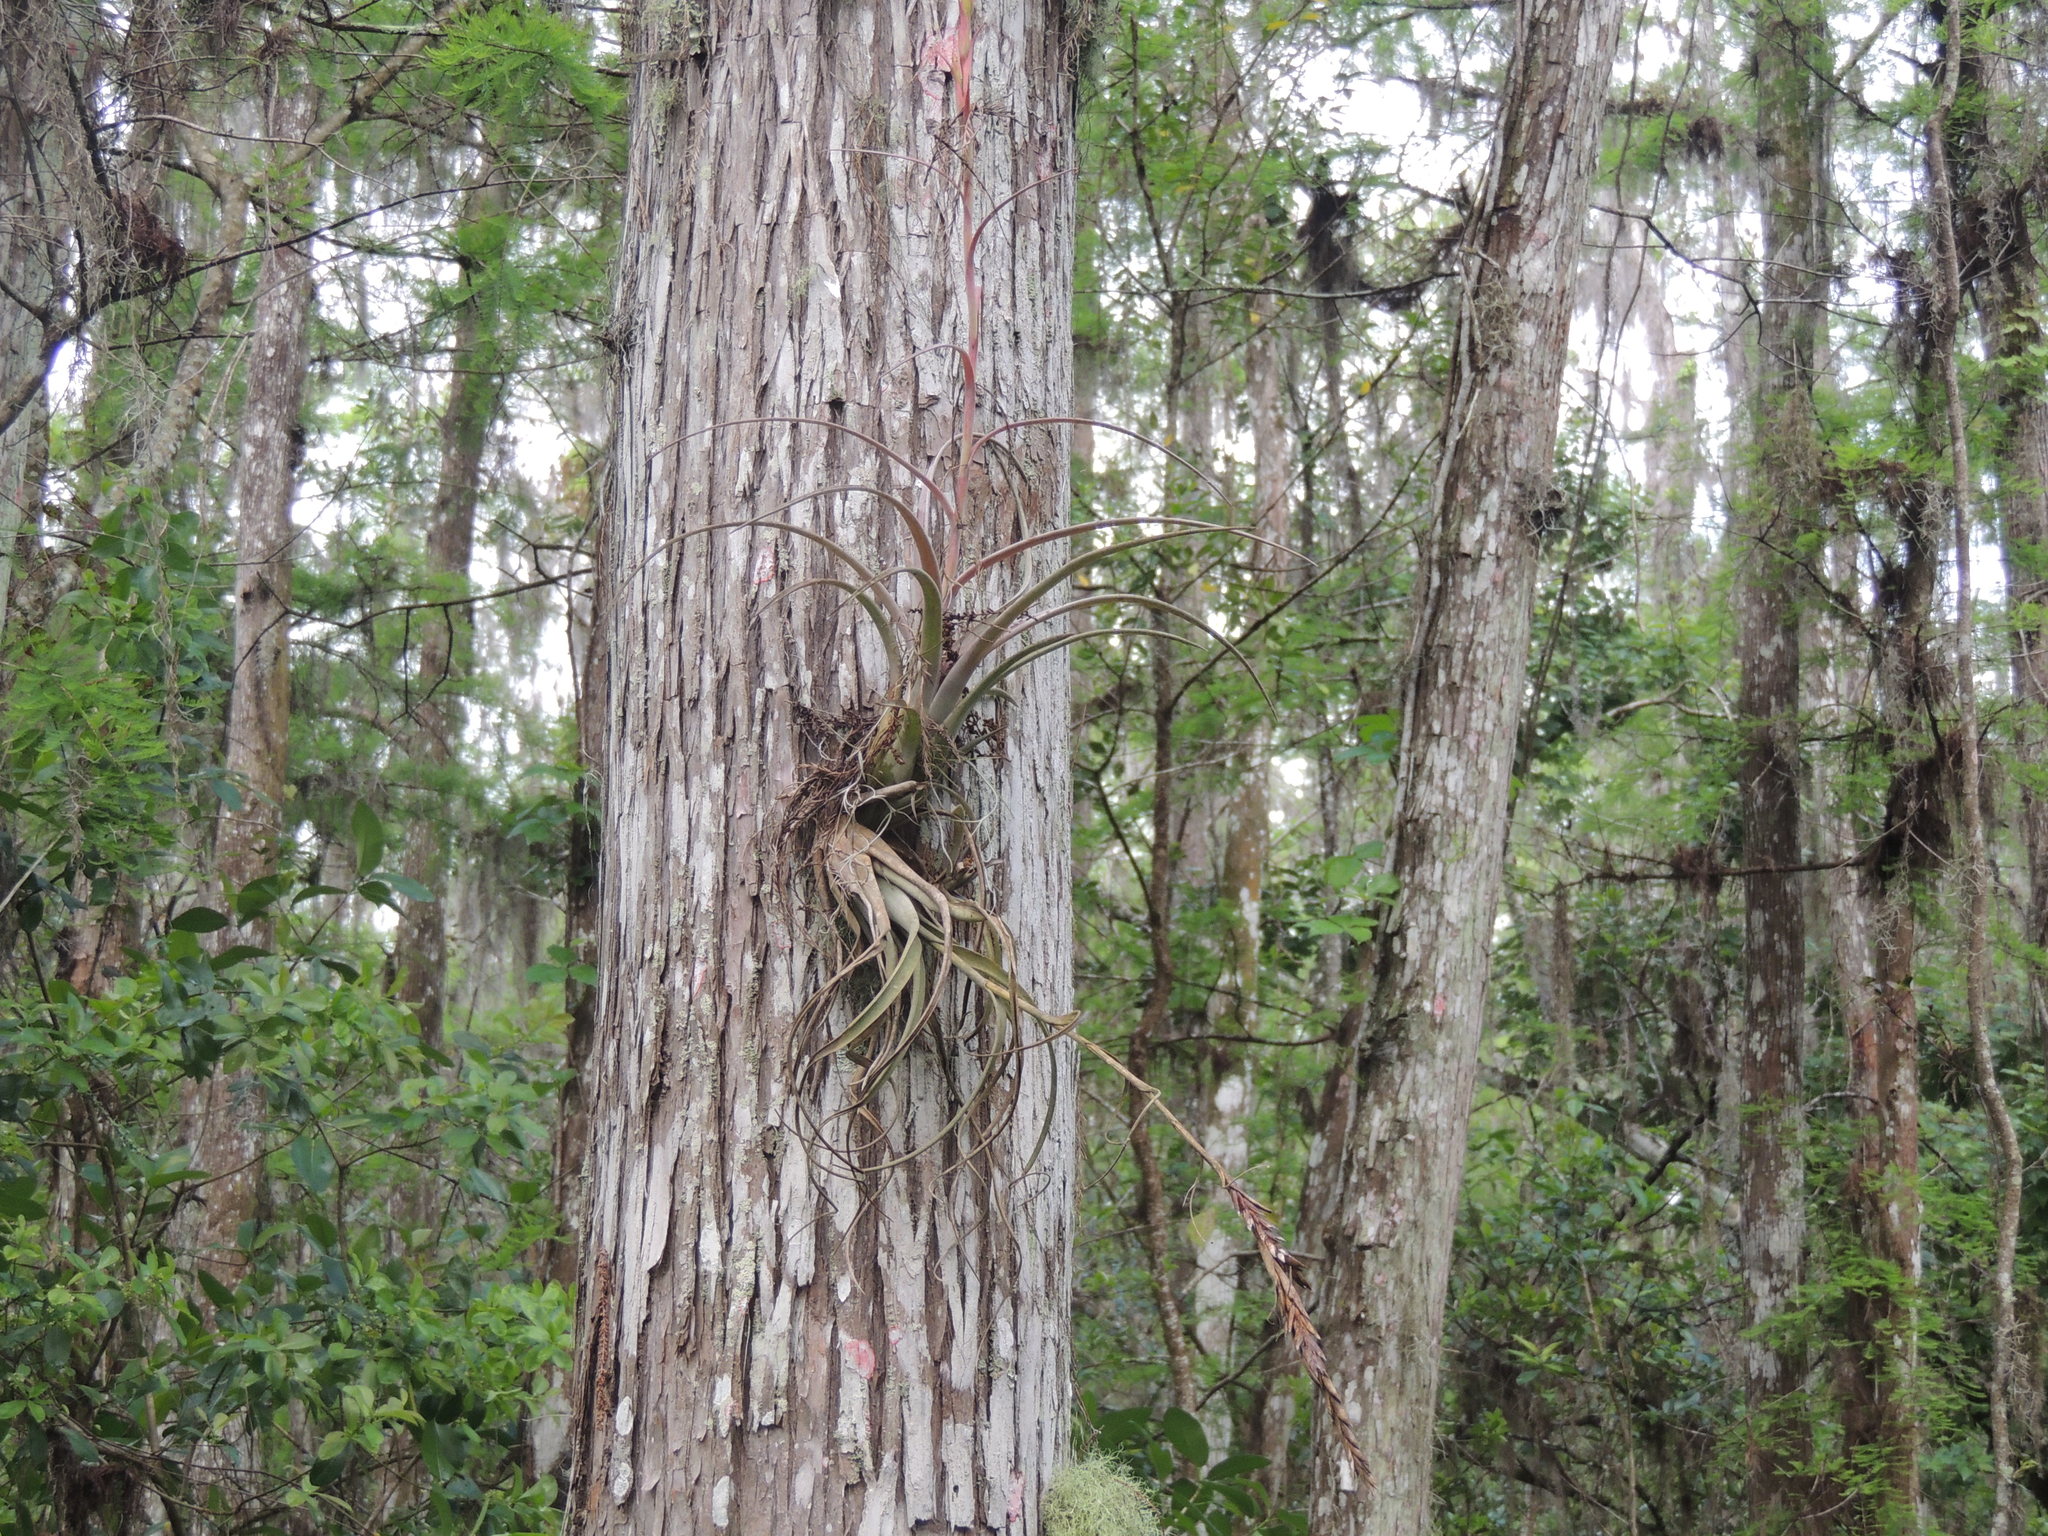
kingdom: Plantae
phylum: Tracheophyta
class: Liliopsida
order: Poales
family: Bromeliaceae
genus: Tillandsia
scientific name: Tillandsia balbisiana
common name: Northern needleleaf
